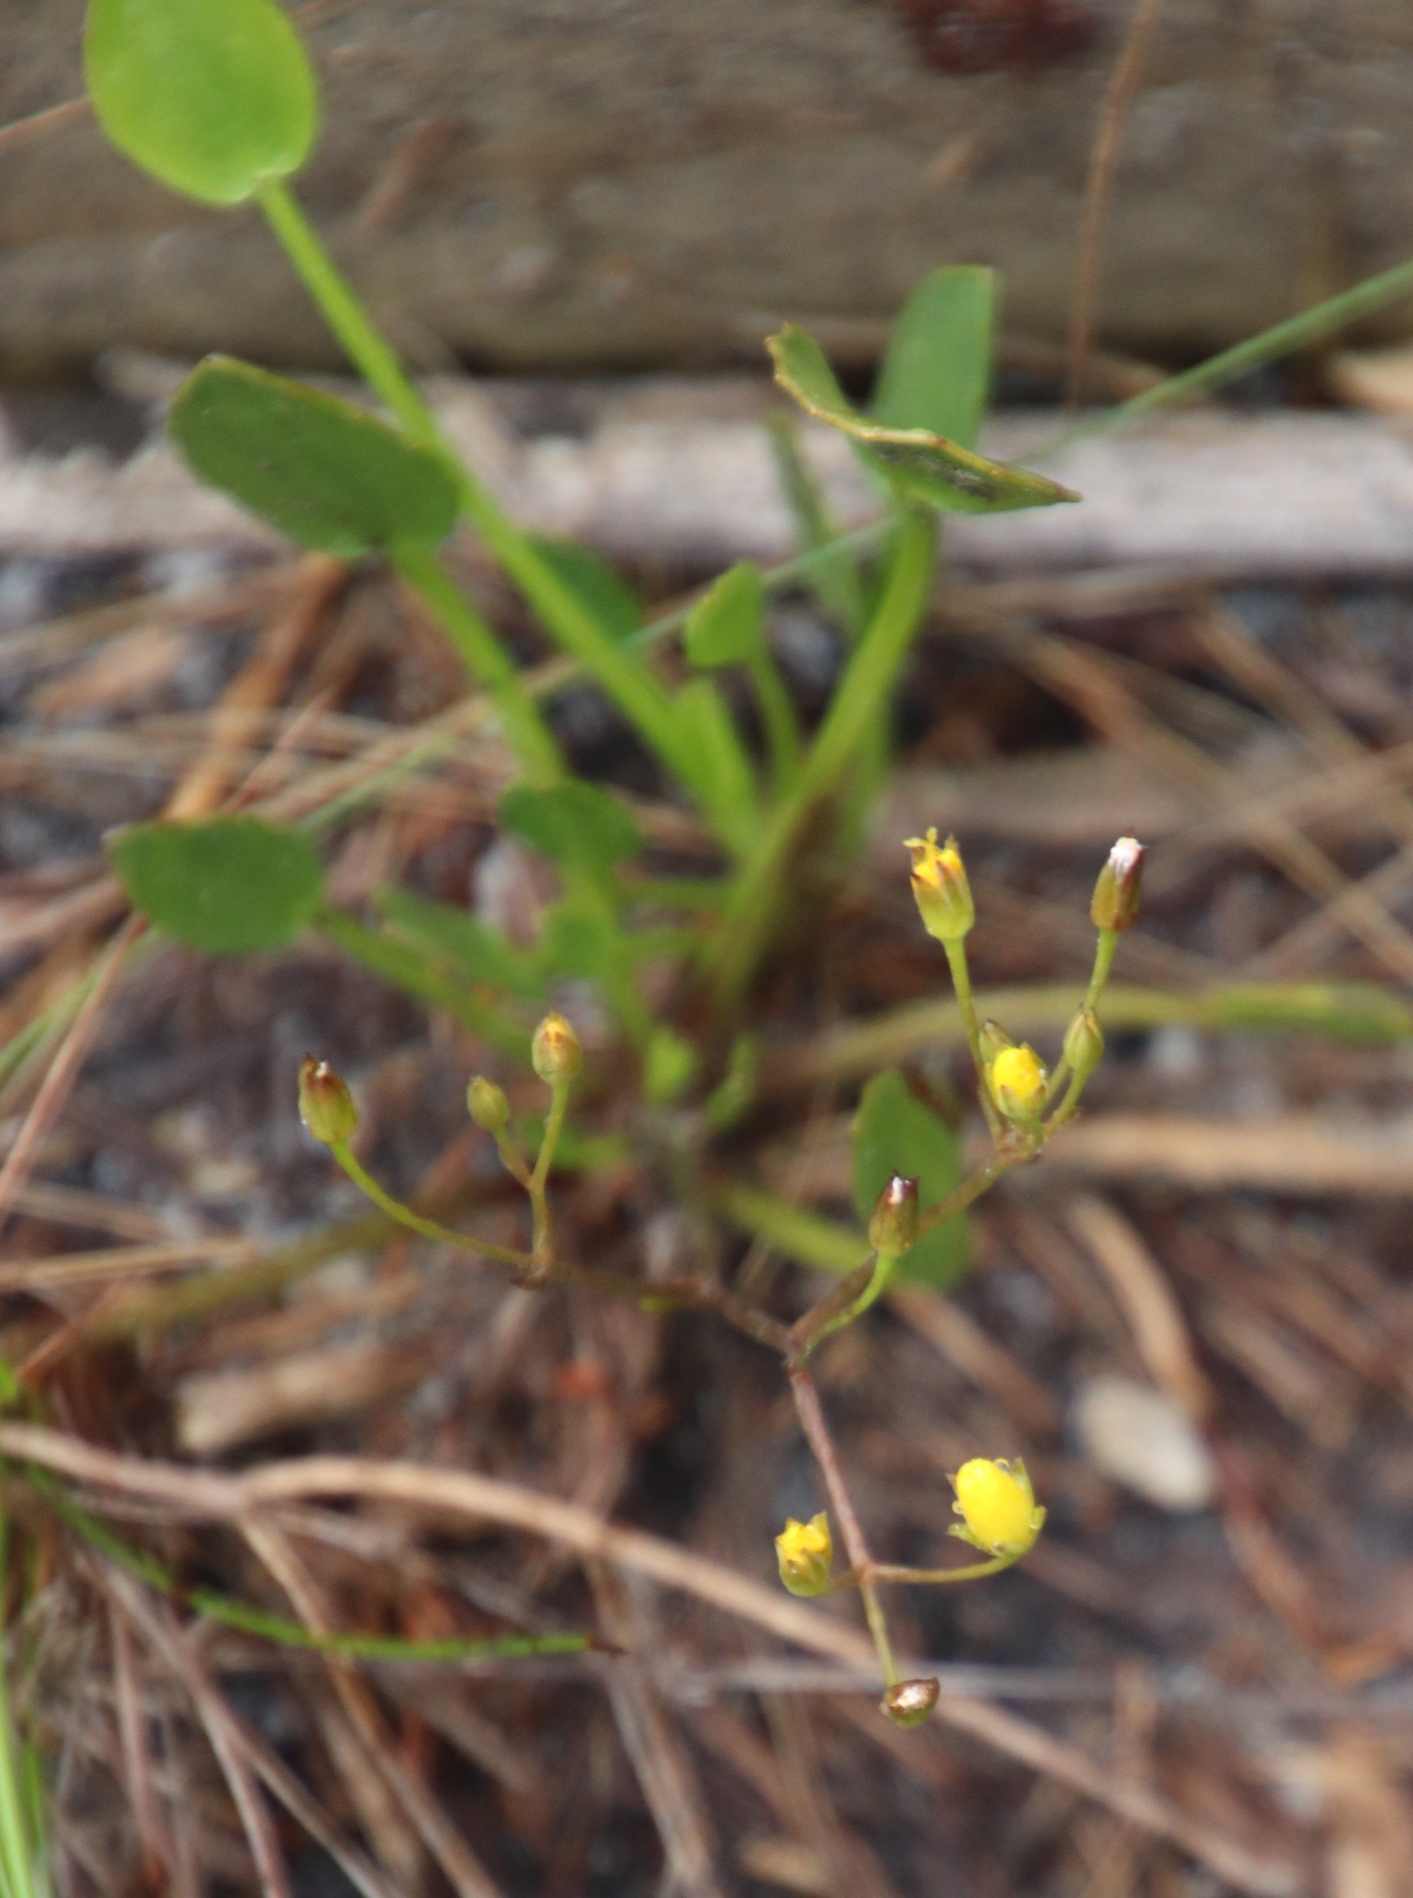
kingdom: Plantae
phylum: Tracheophyta
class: Magnoliopsida
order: Asterales
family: Menyanthaceae
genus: Villarsia
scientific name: Villarsia manningiana
